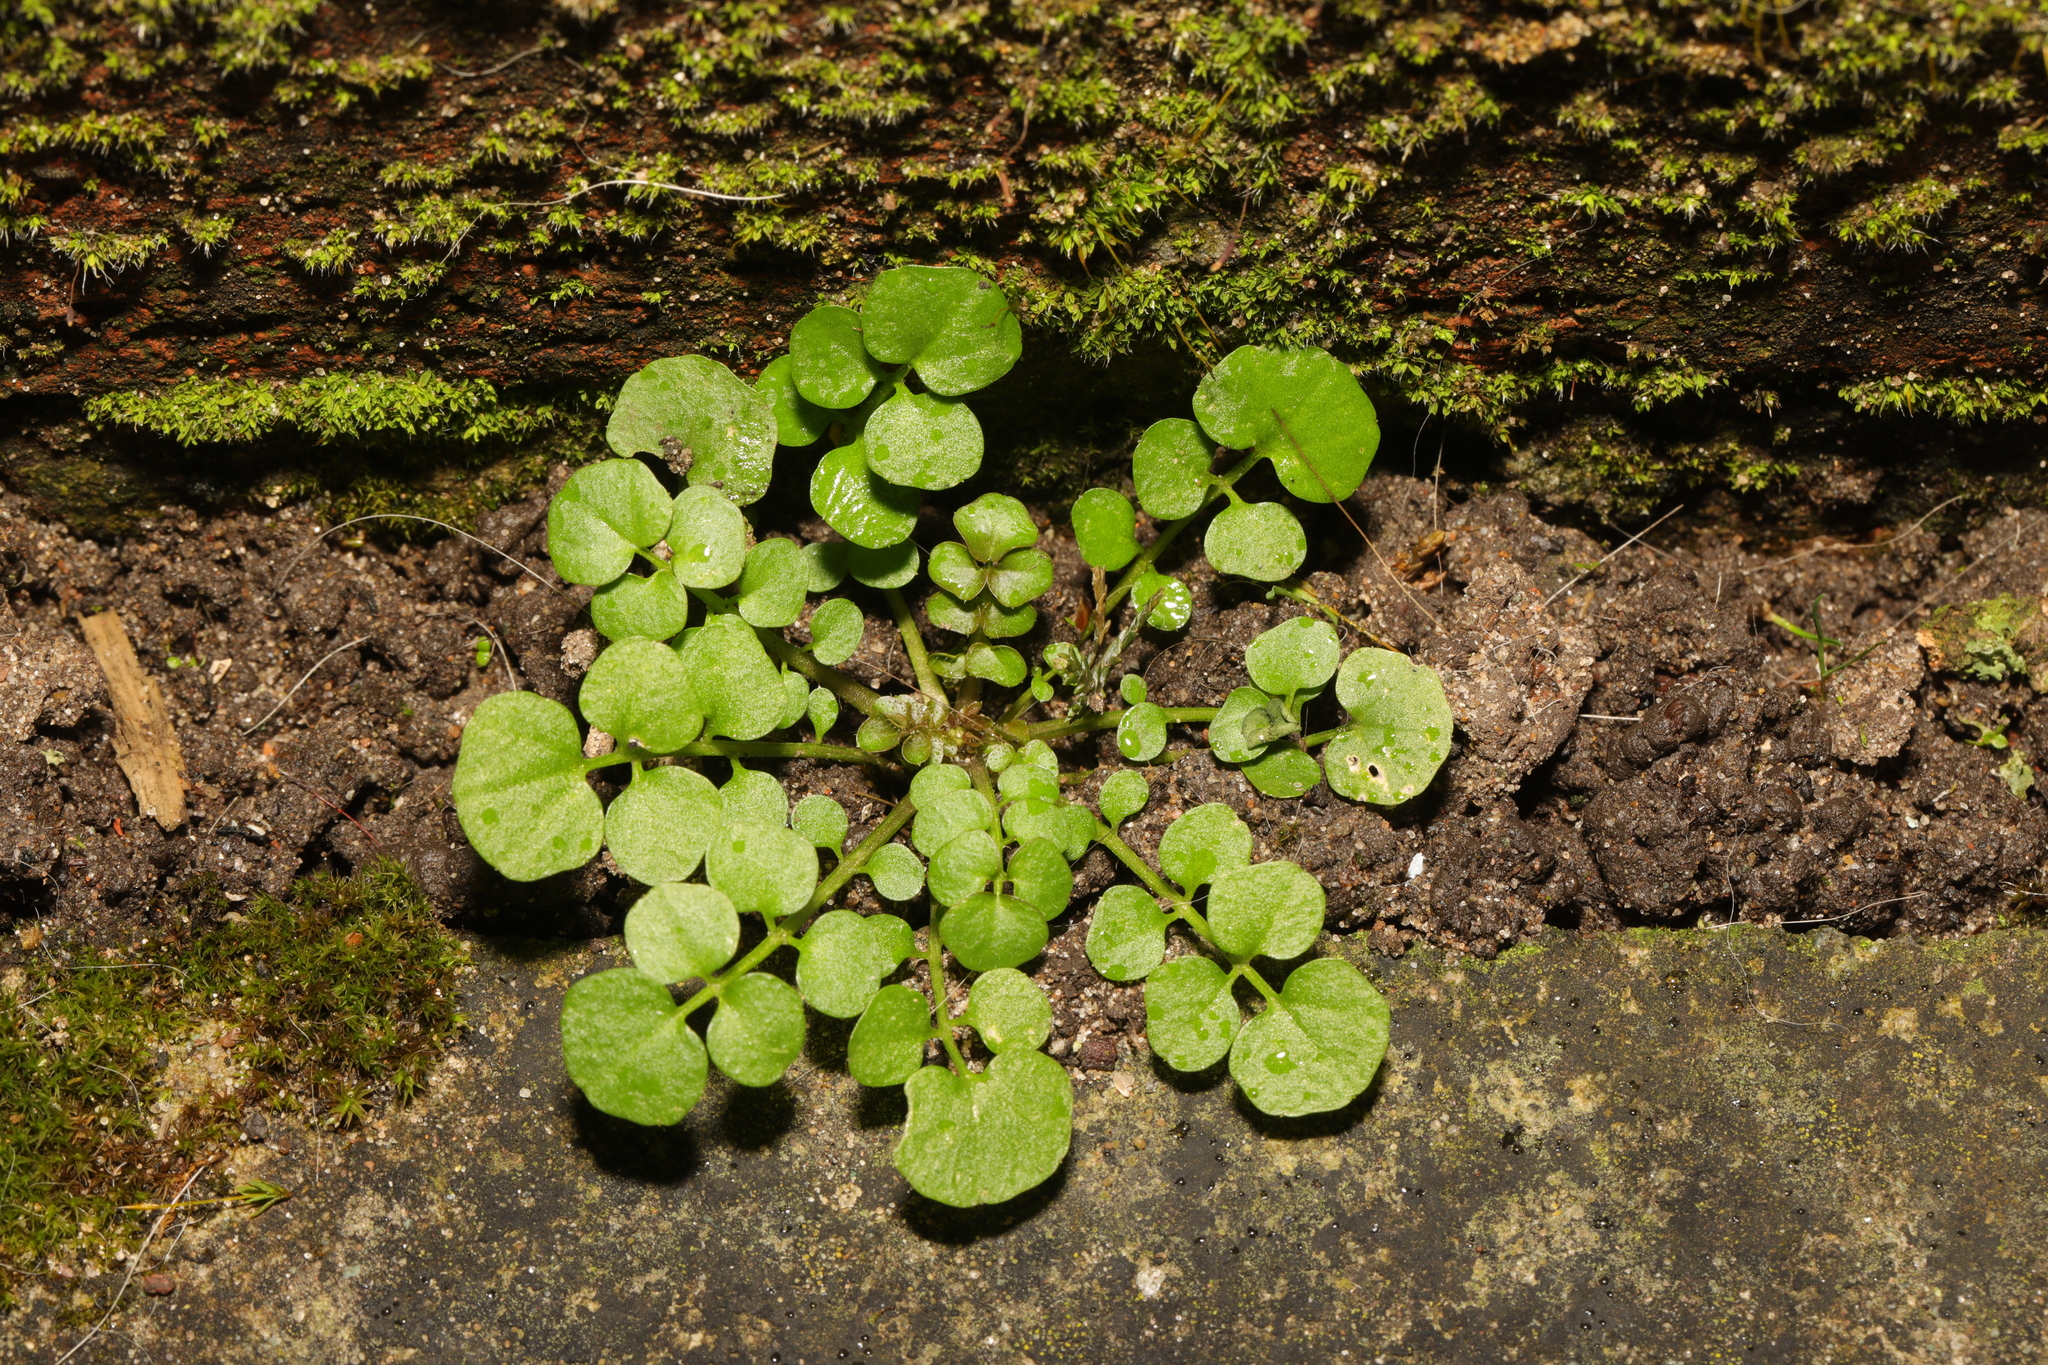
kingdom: Plantae
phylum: Tracheophyta
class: Magnoliopsida
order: Brassicales
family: Brassicaceae
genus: Cardamine
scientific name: Cardamine hirsuta
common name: Hairy bittercress
